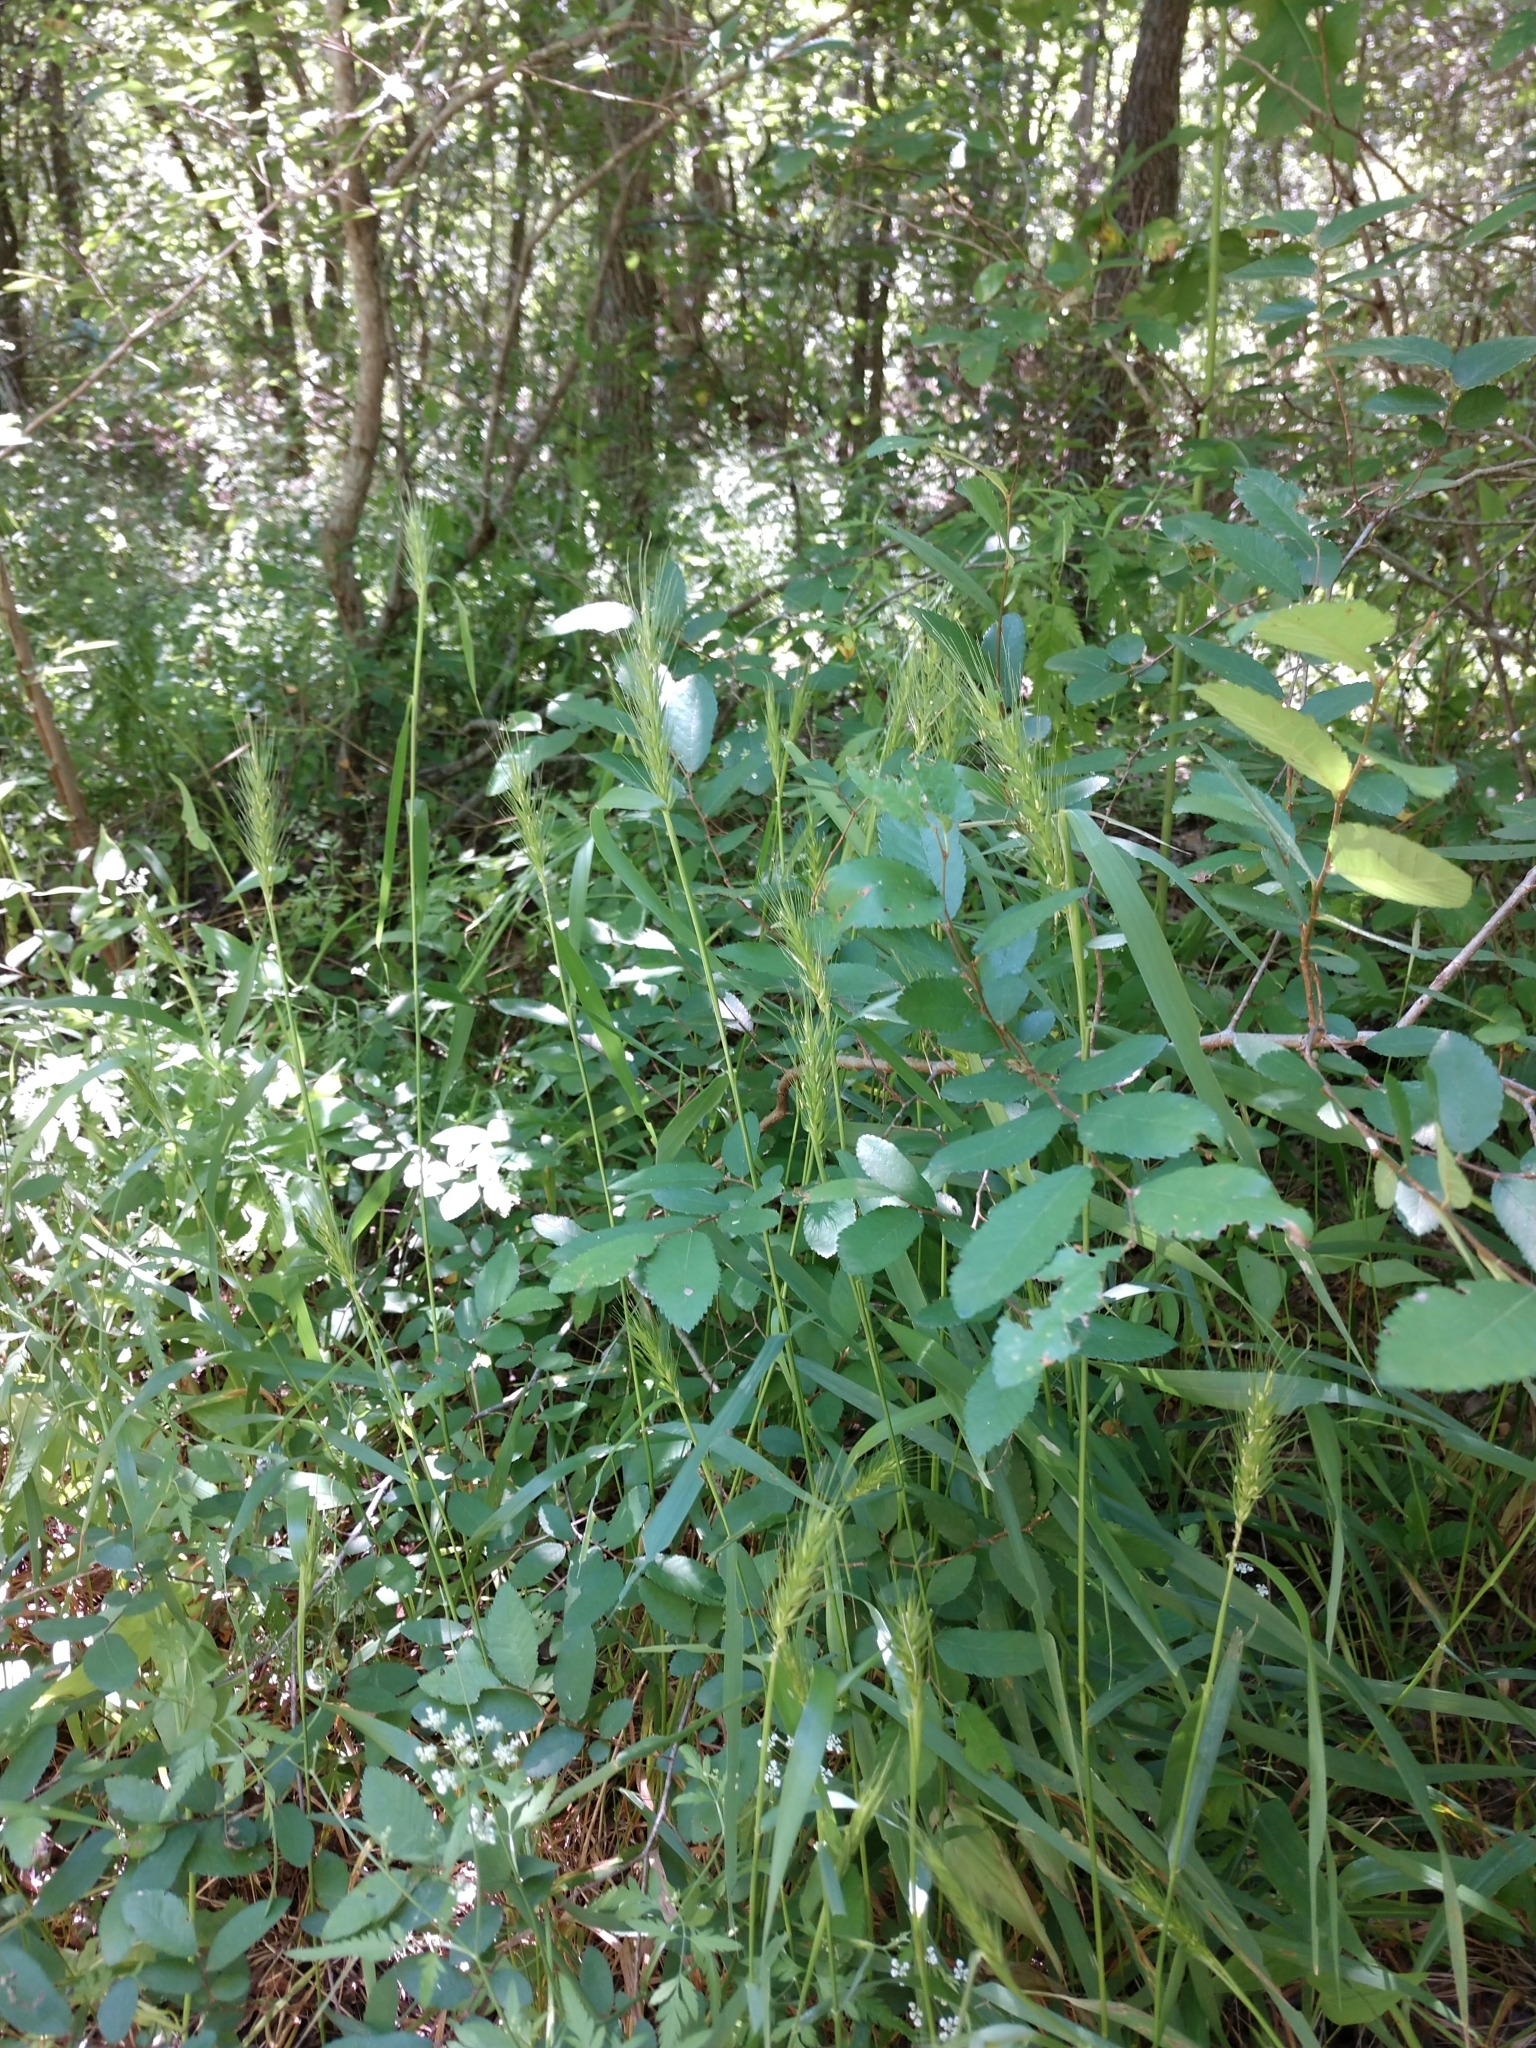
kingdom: Plantae
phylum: Tracheophyta
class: Liliopsida
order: Poales
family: Poaceae
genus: Elymus
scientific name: Elymus virginicus
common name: Common eastern wildrye
